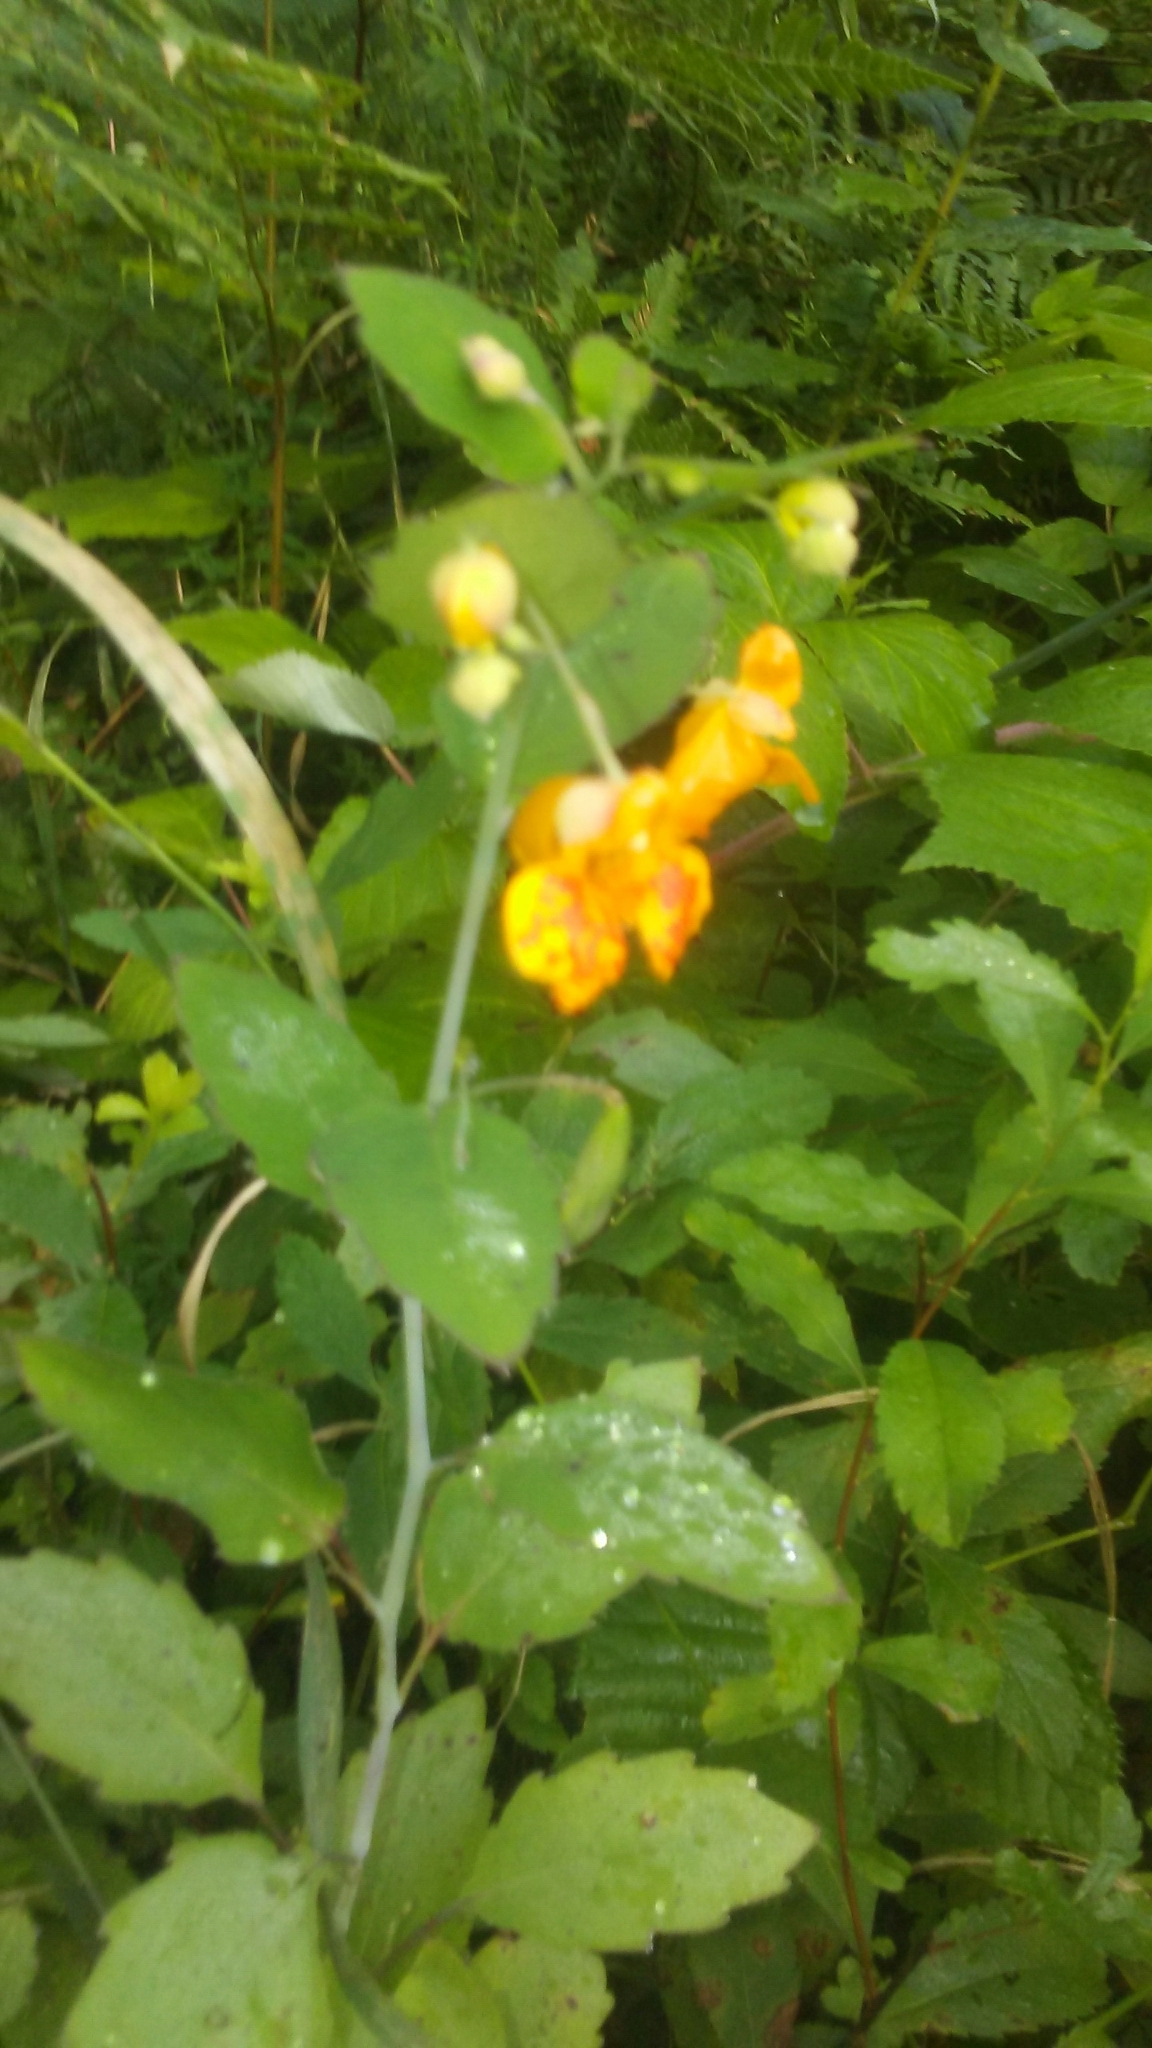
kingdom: Plantae
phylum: Tracheophyta
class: Magnoliopsida
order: Ericales
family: Balsaminaceae
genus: Impatiens
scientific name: Impatiens capensis
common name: Orange balsam
